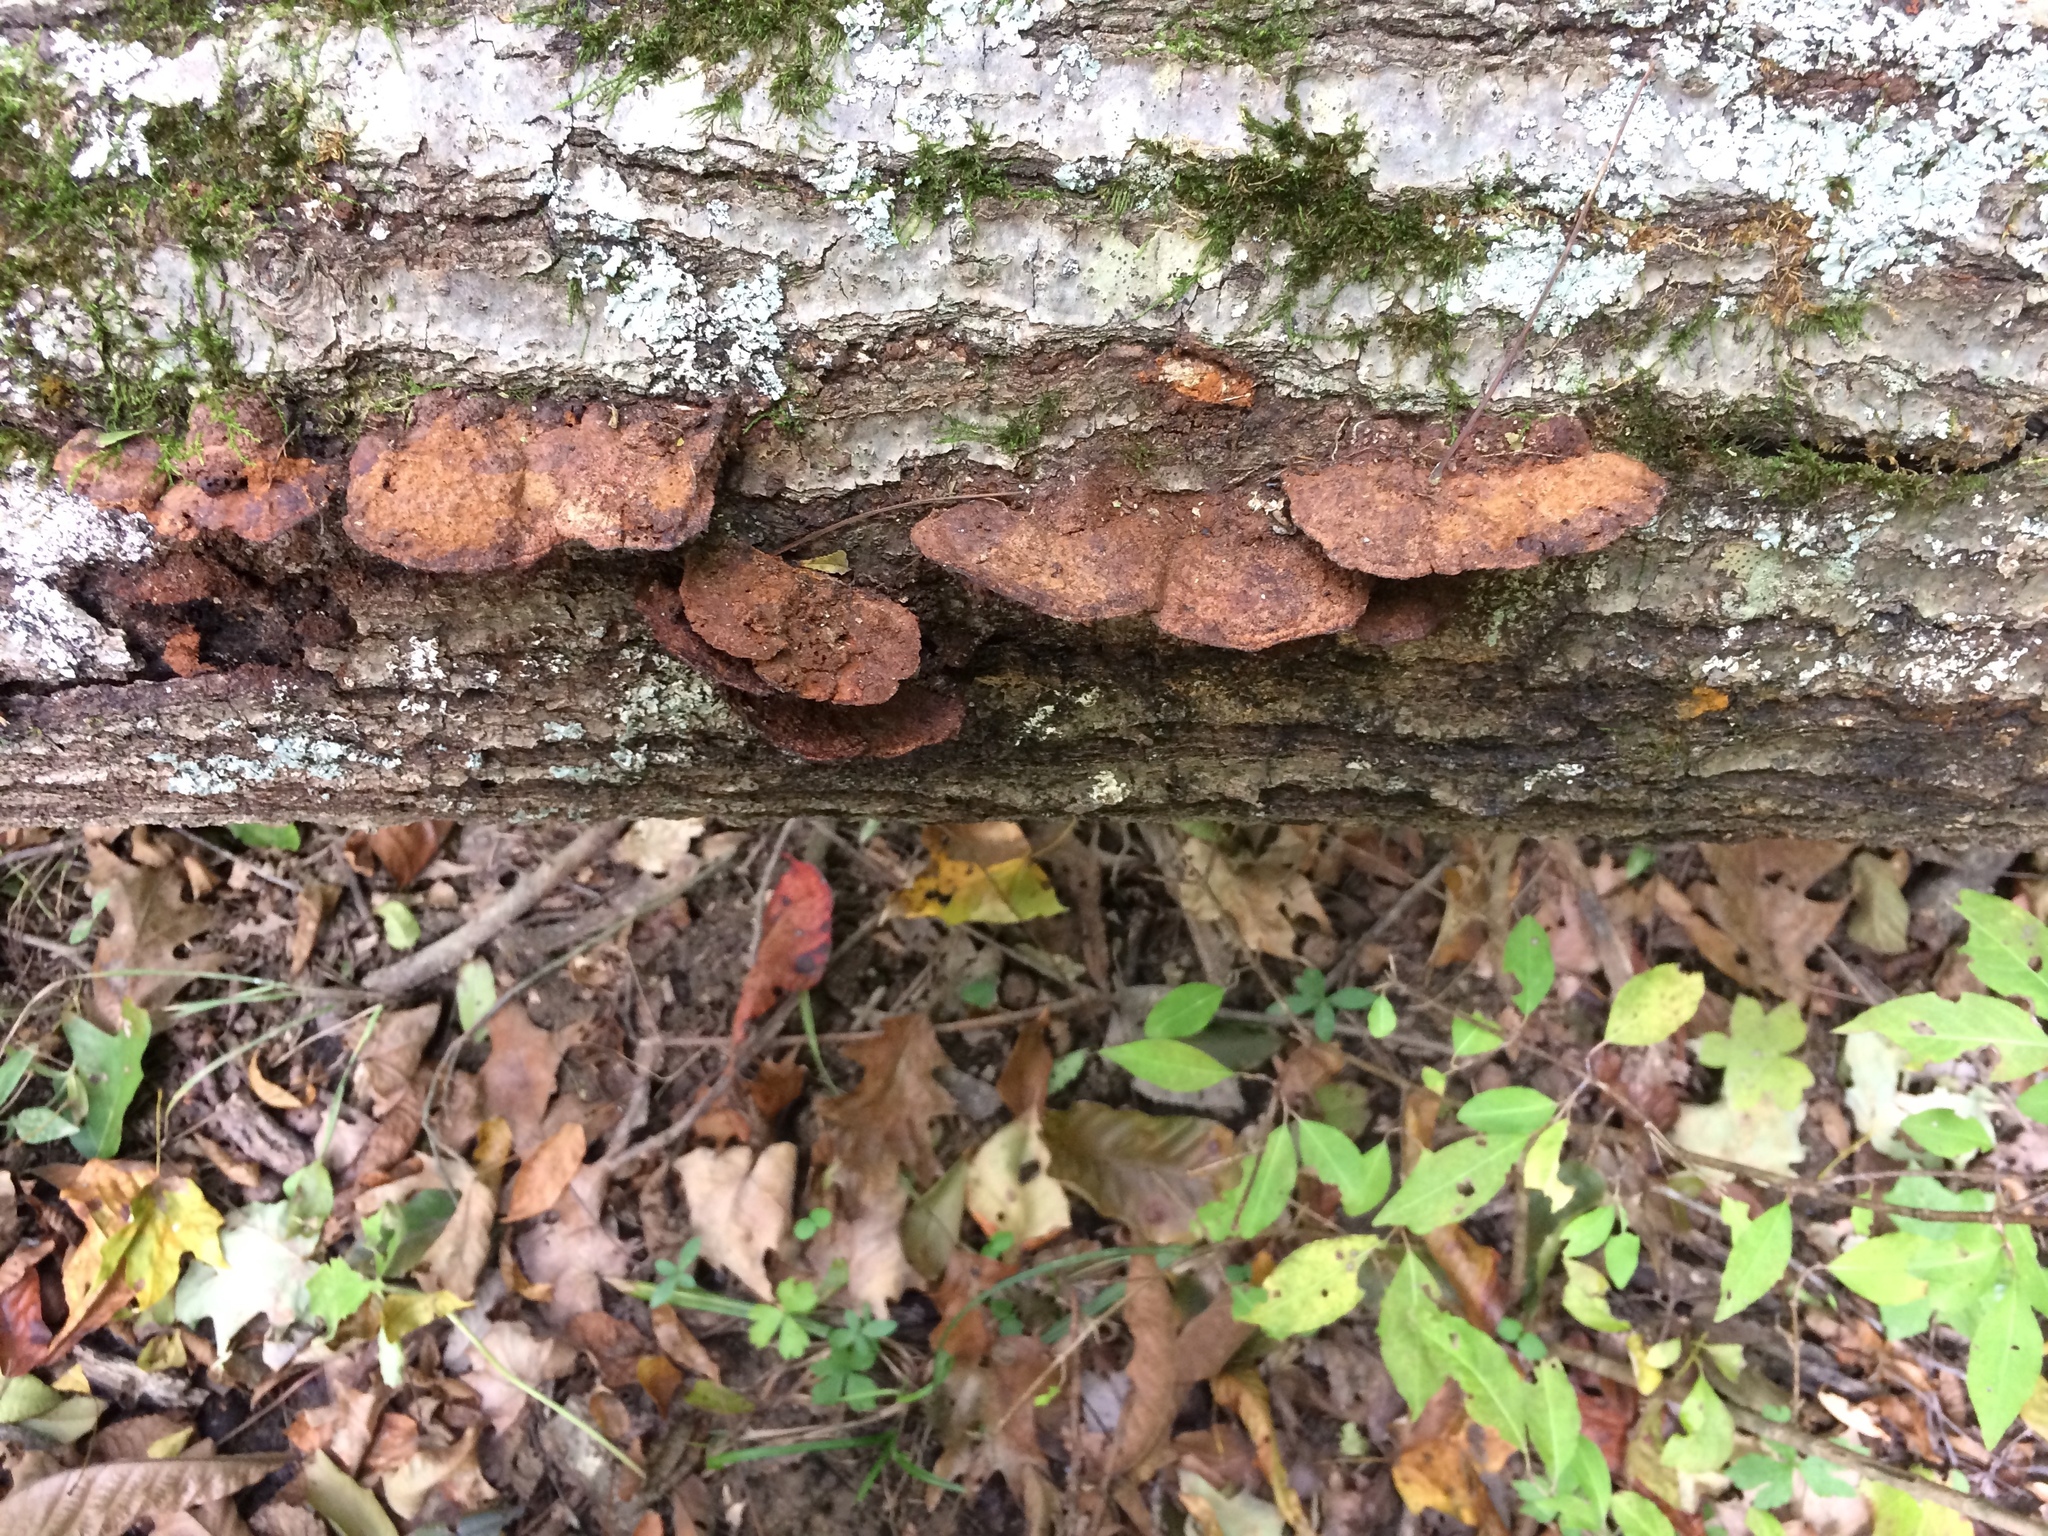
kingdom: Fungi
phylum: Basidiomycota
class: Agaricomycetes
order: Hymenochaetales
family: Hymenochaetaceae
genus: Phellinus
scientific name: Phellinus gilvus
